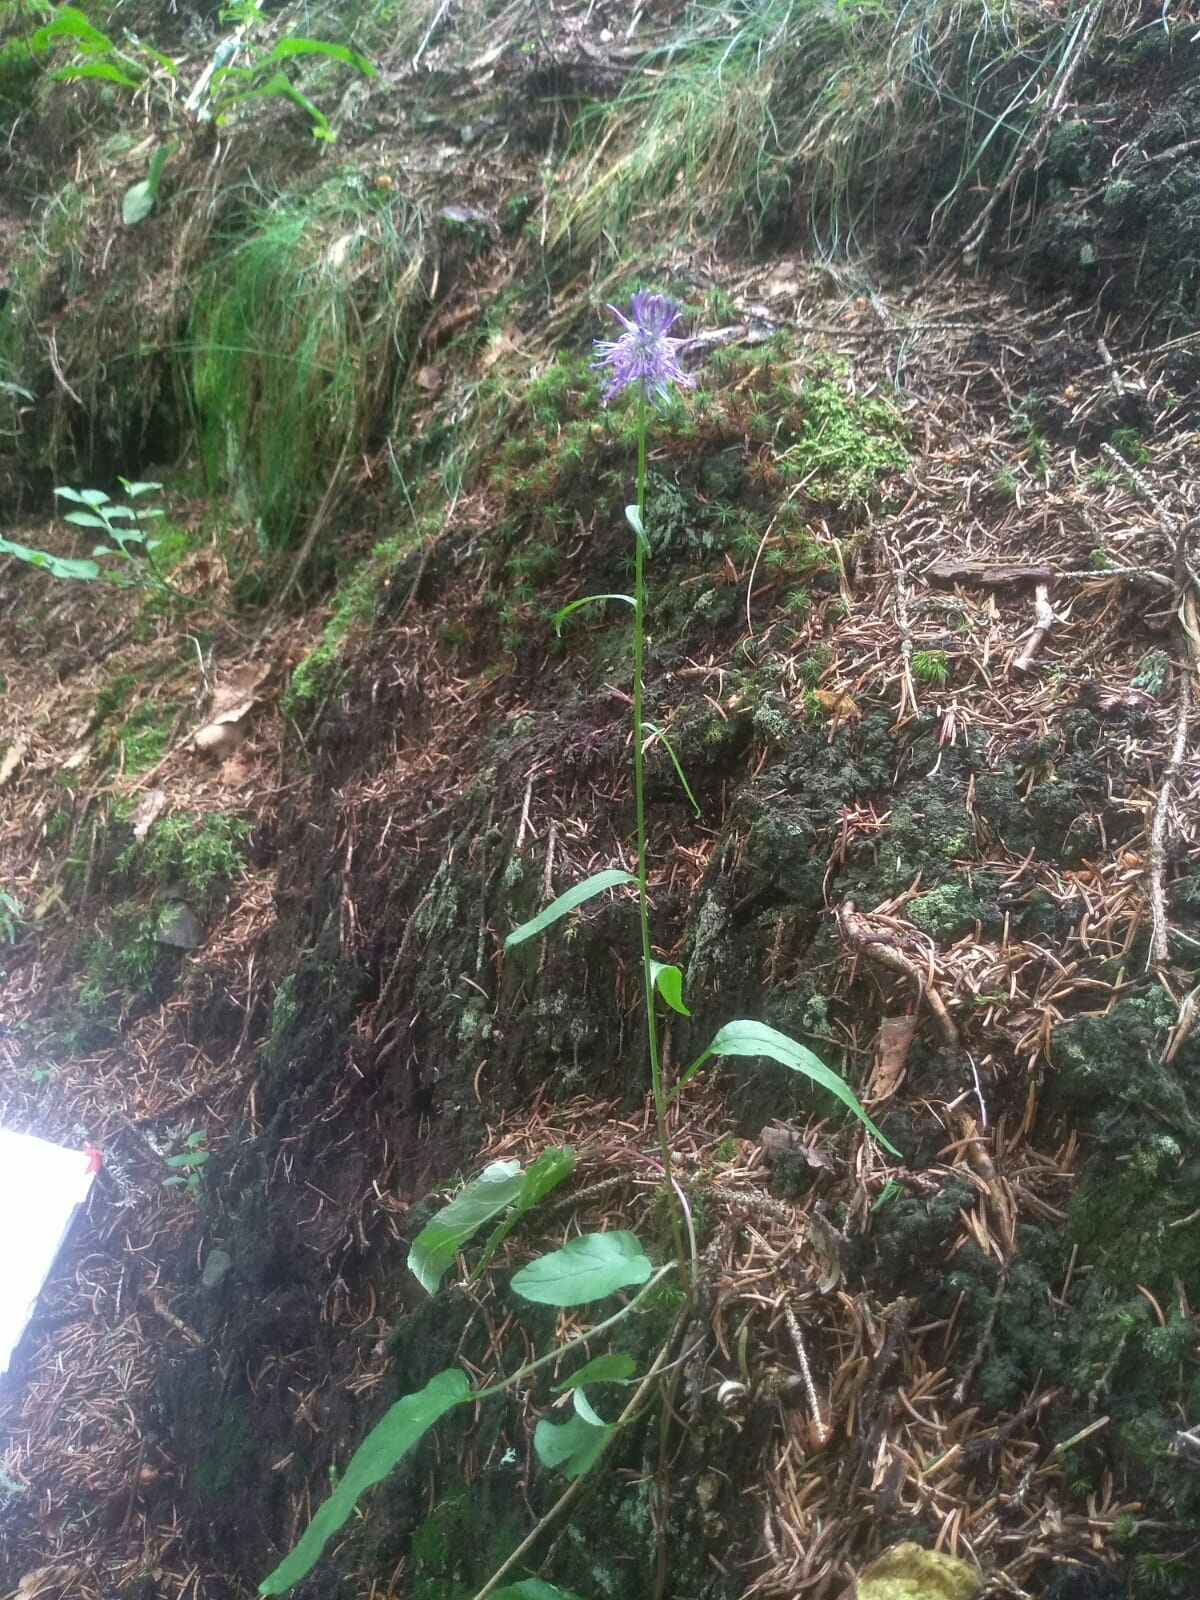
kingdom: Plantae
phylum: Tracheophyta
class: Magnoliopsida
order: Asterales
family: Campanulaceae
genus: Phyteuma
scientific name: Phyteuma betonicifolium
